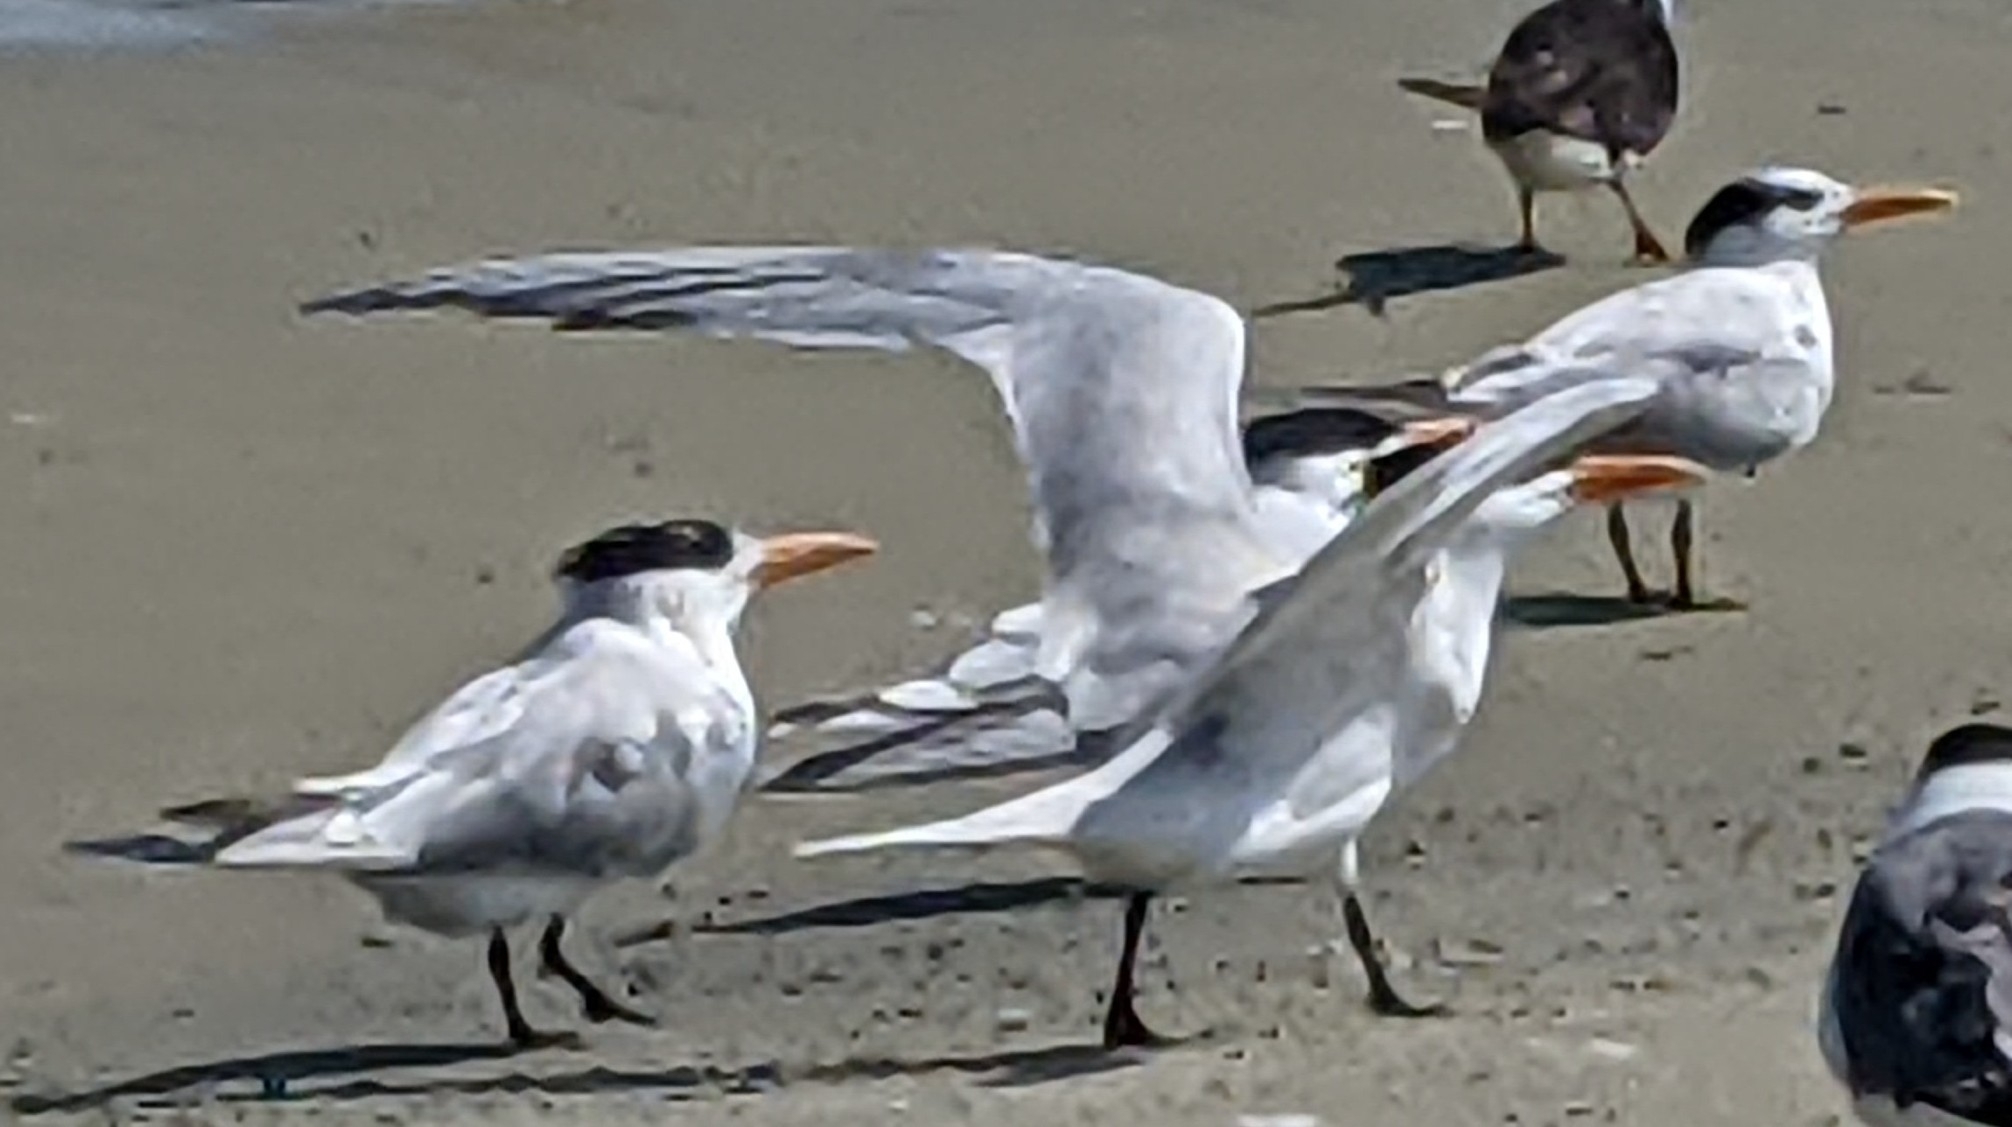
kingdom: Animalia
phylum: Chordata
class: Aves
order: Charadriiformes
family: Laridae
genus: Thalasseus
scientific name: Thalasseus maximus
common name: Royal tern
